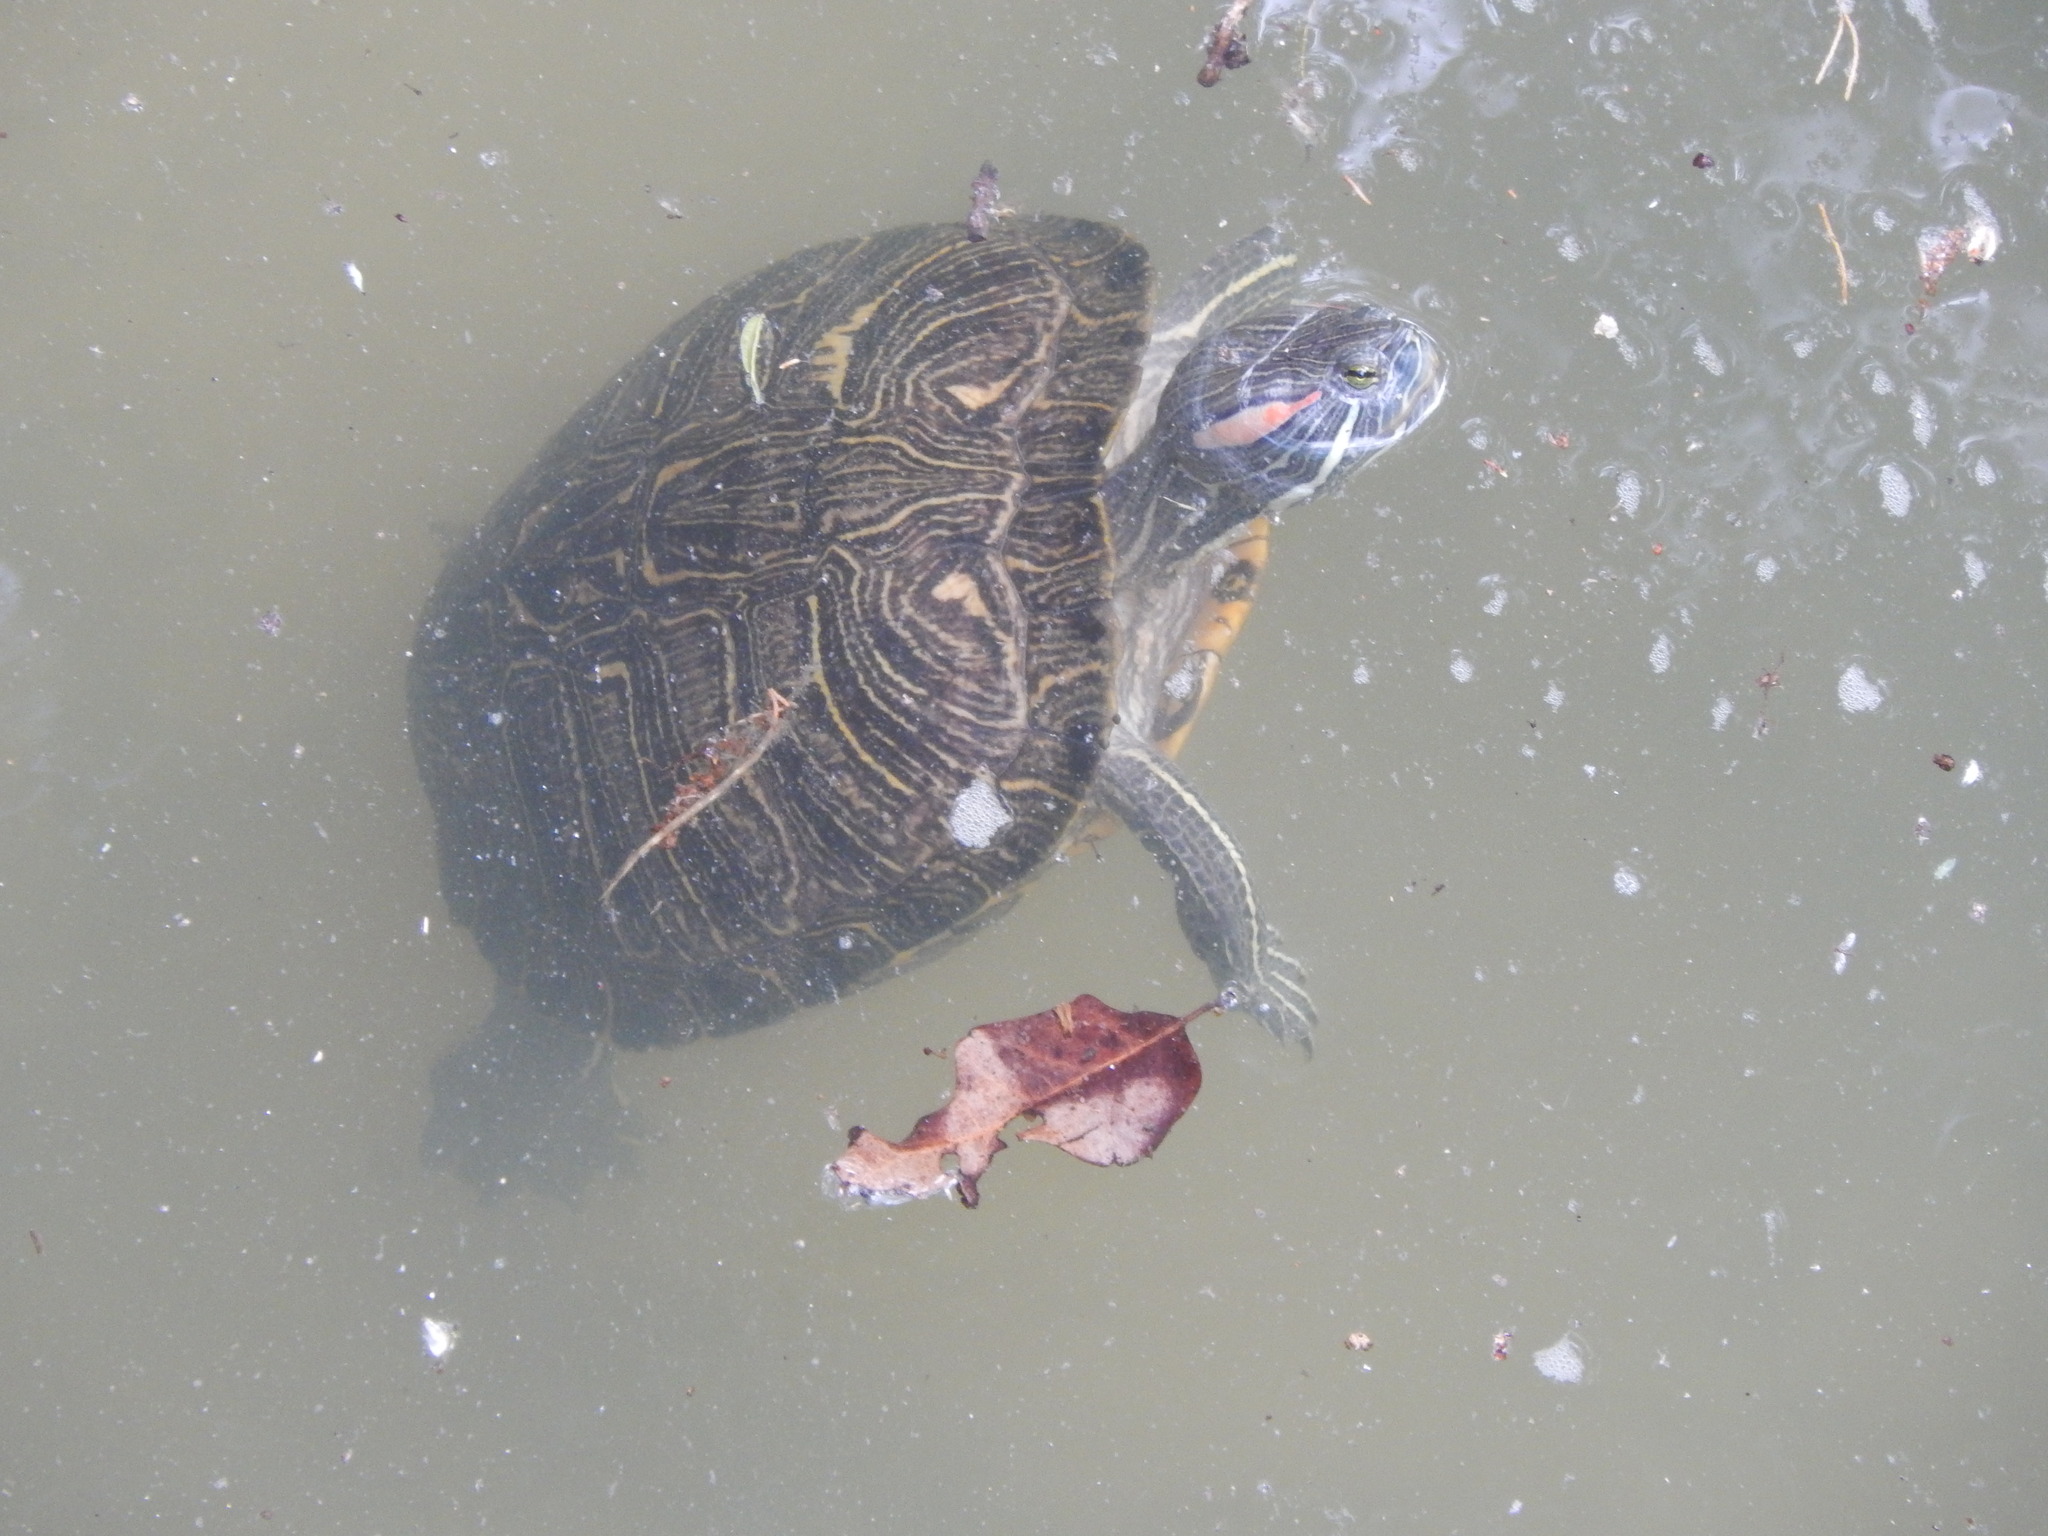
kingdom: Animalia
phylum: Chordata
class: Testudines
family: Emydidae
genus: Trachemys
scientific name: Trachemys scripta
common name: Slider
